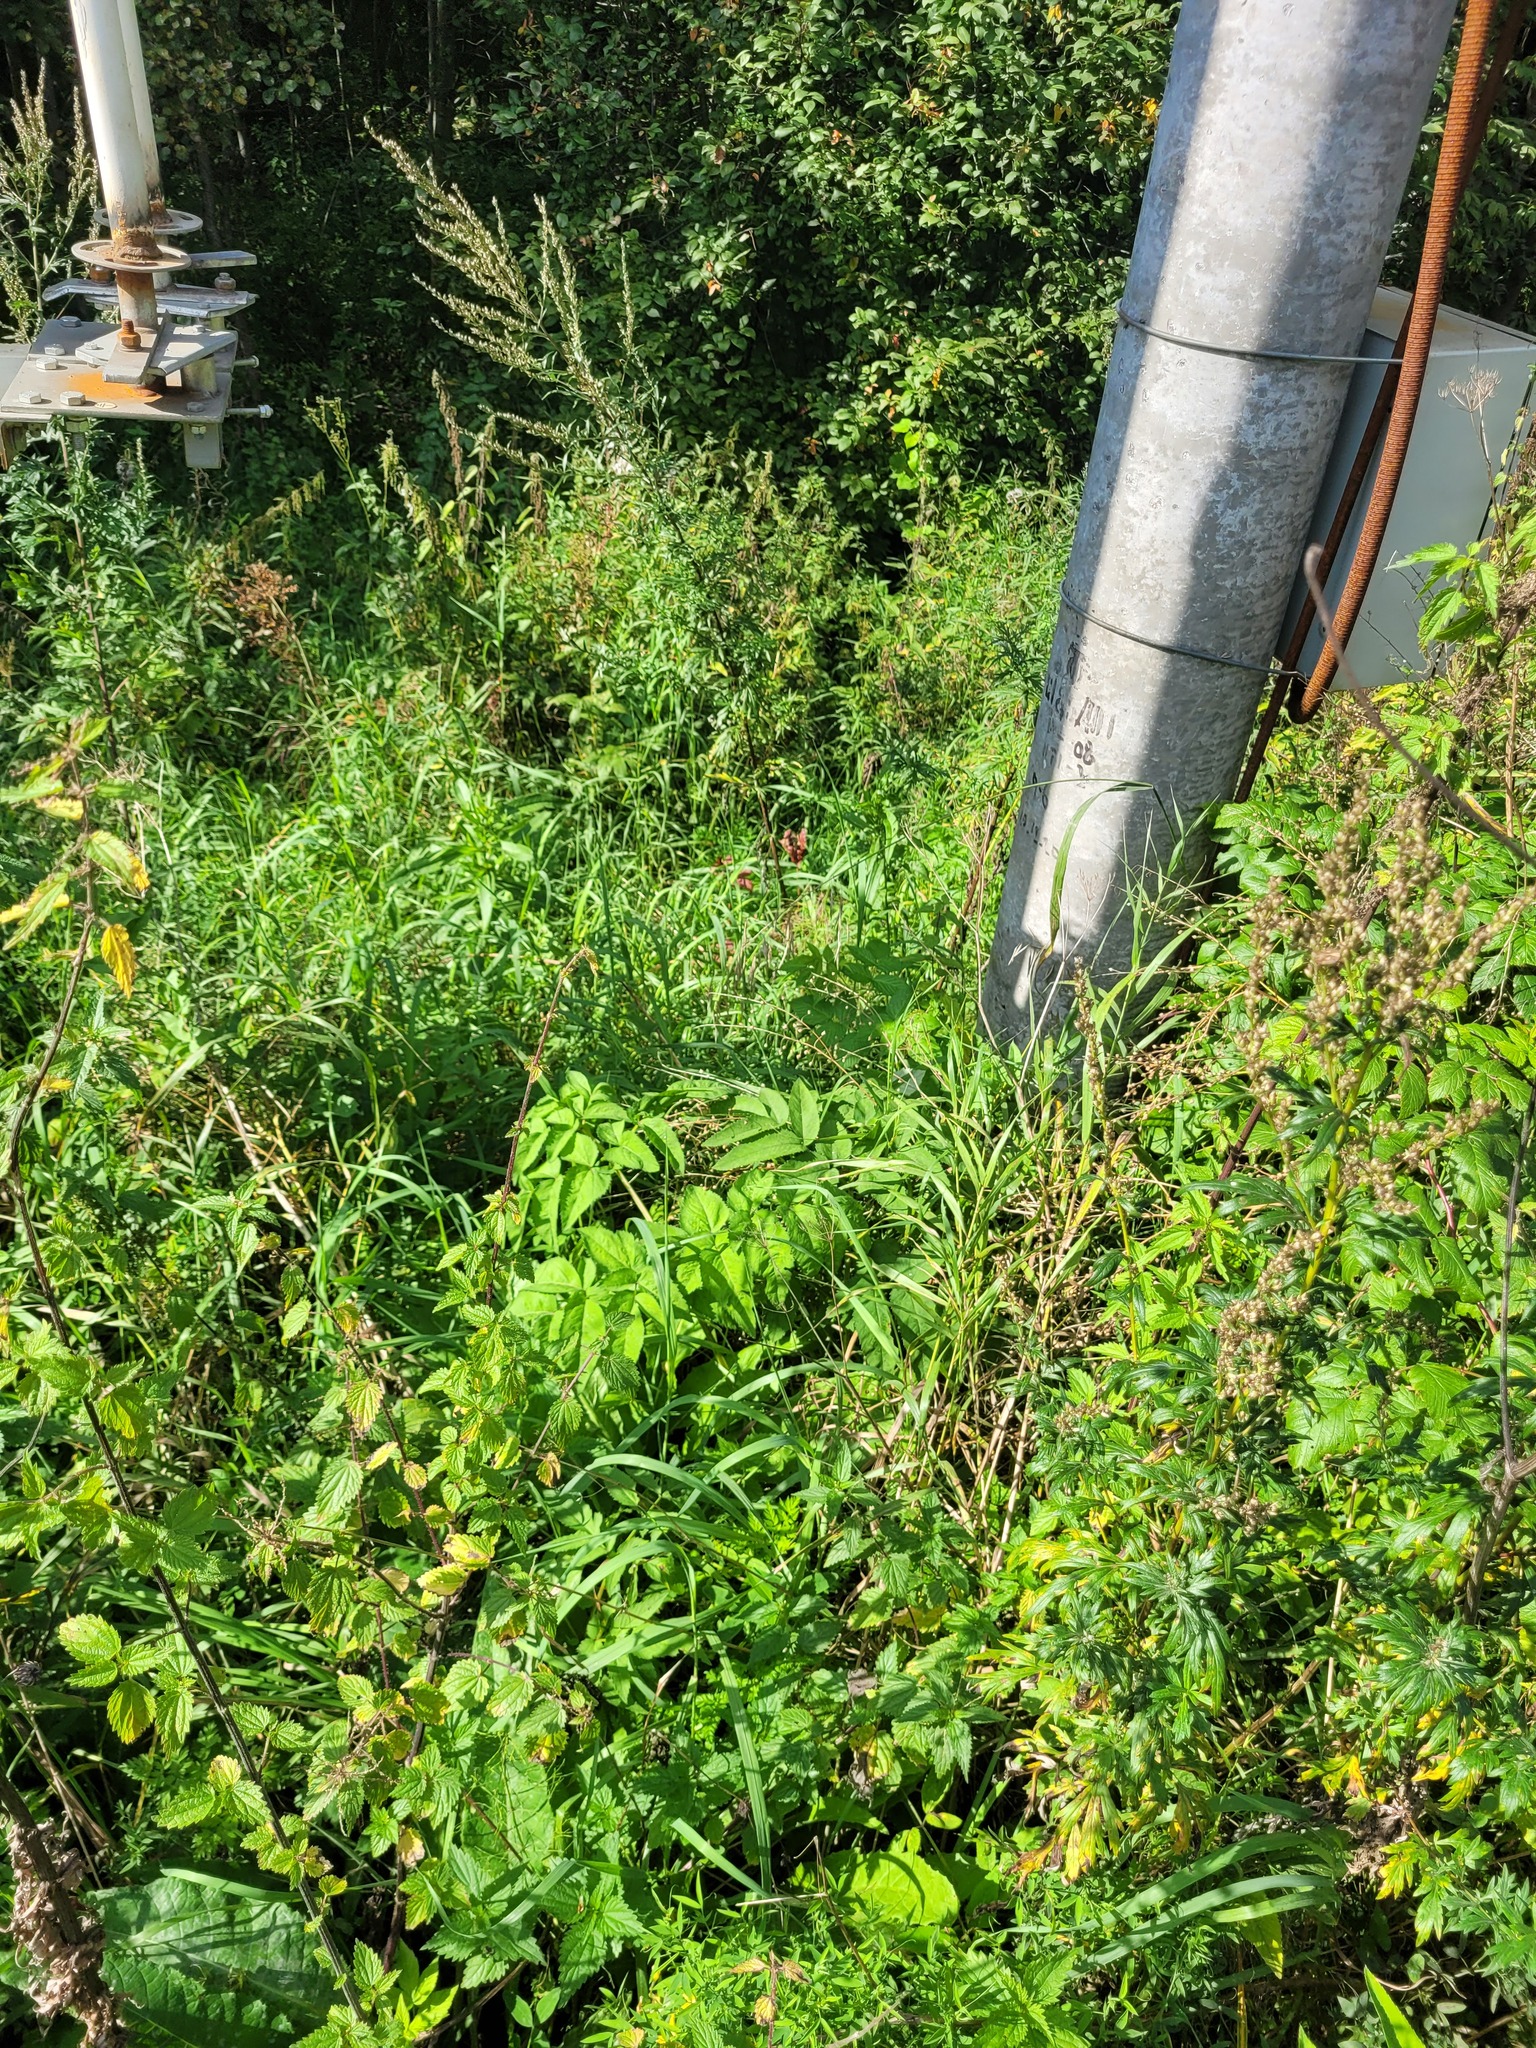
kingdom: Plantae
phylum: Tracheophyta
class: Magnoliopsida
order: Apiales
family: Apiaceae
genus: Angelica
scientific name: Angelica sylvestris
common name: Wild angelica
